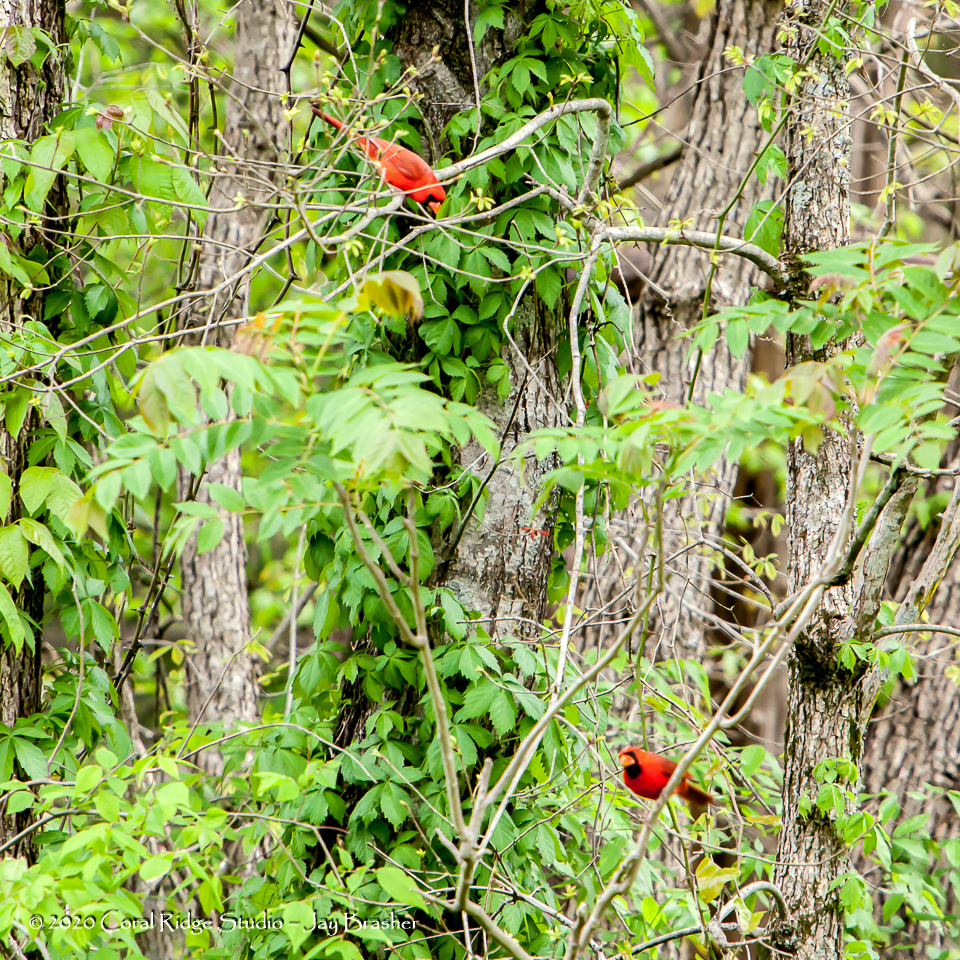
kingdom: Animalia
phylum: Chordata
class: Aves
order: Passeriformes
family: Cardinalidae
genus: Cardinalis
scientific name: Cardinalis cardinalis
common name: Northern cardinal
